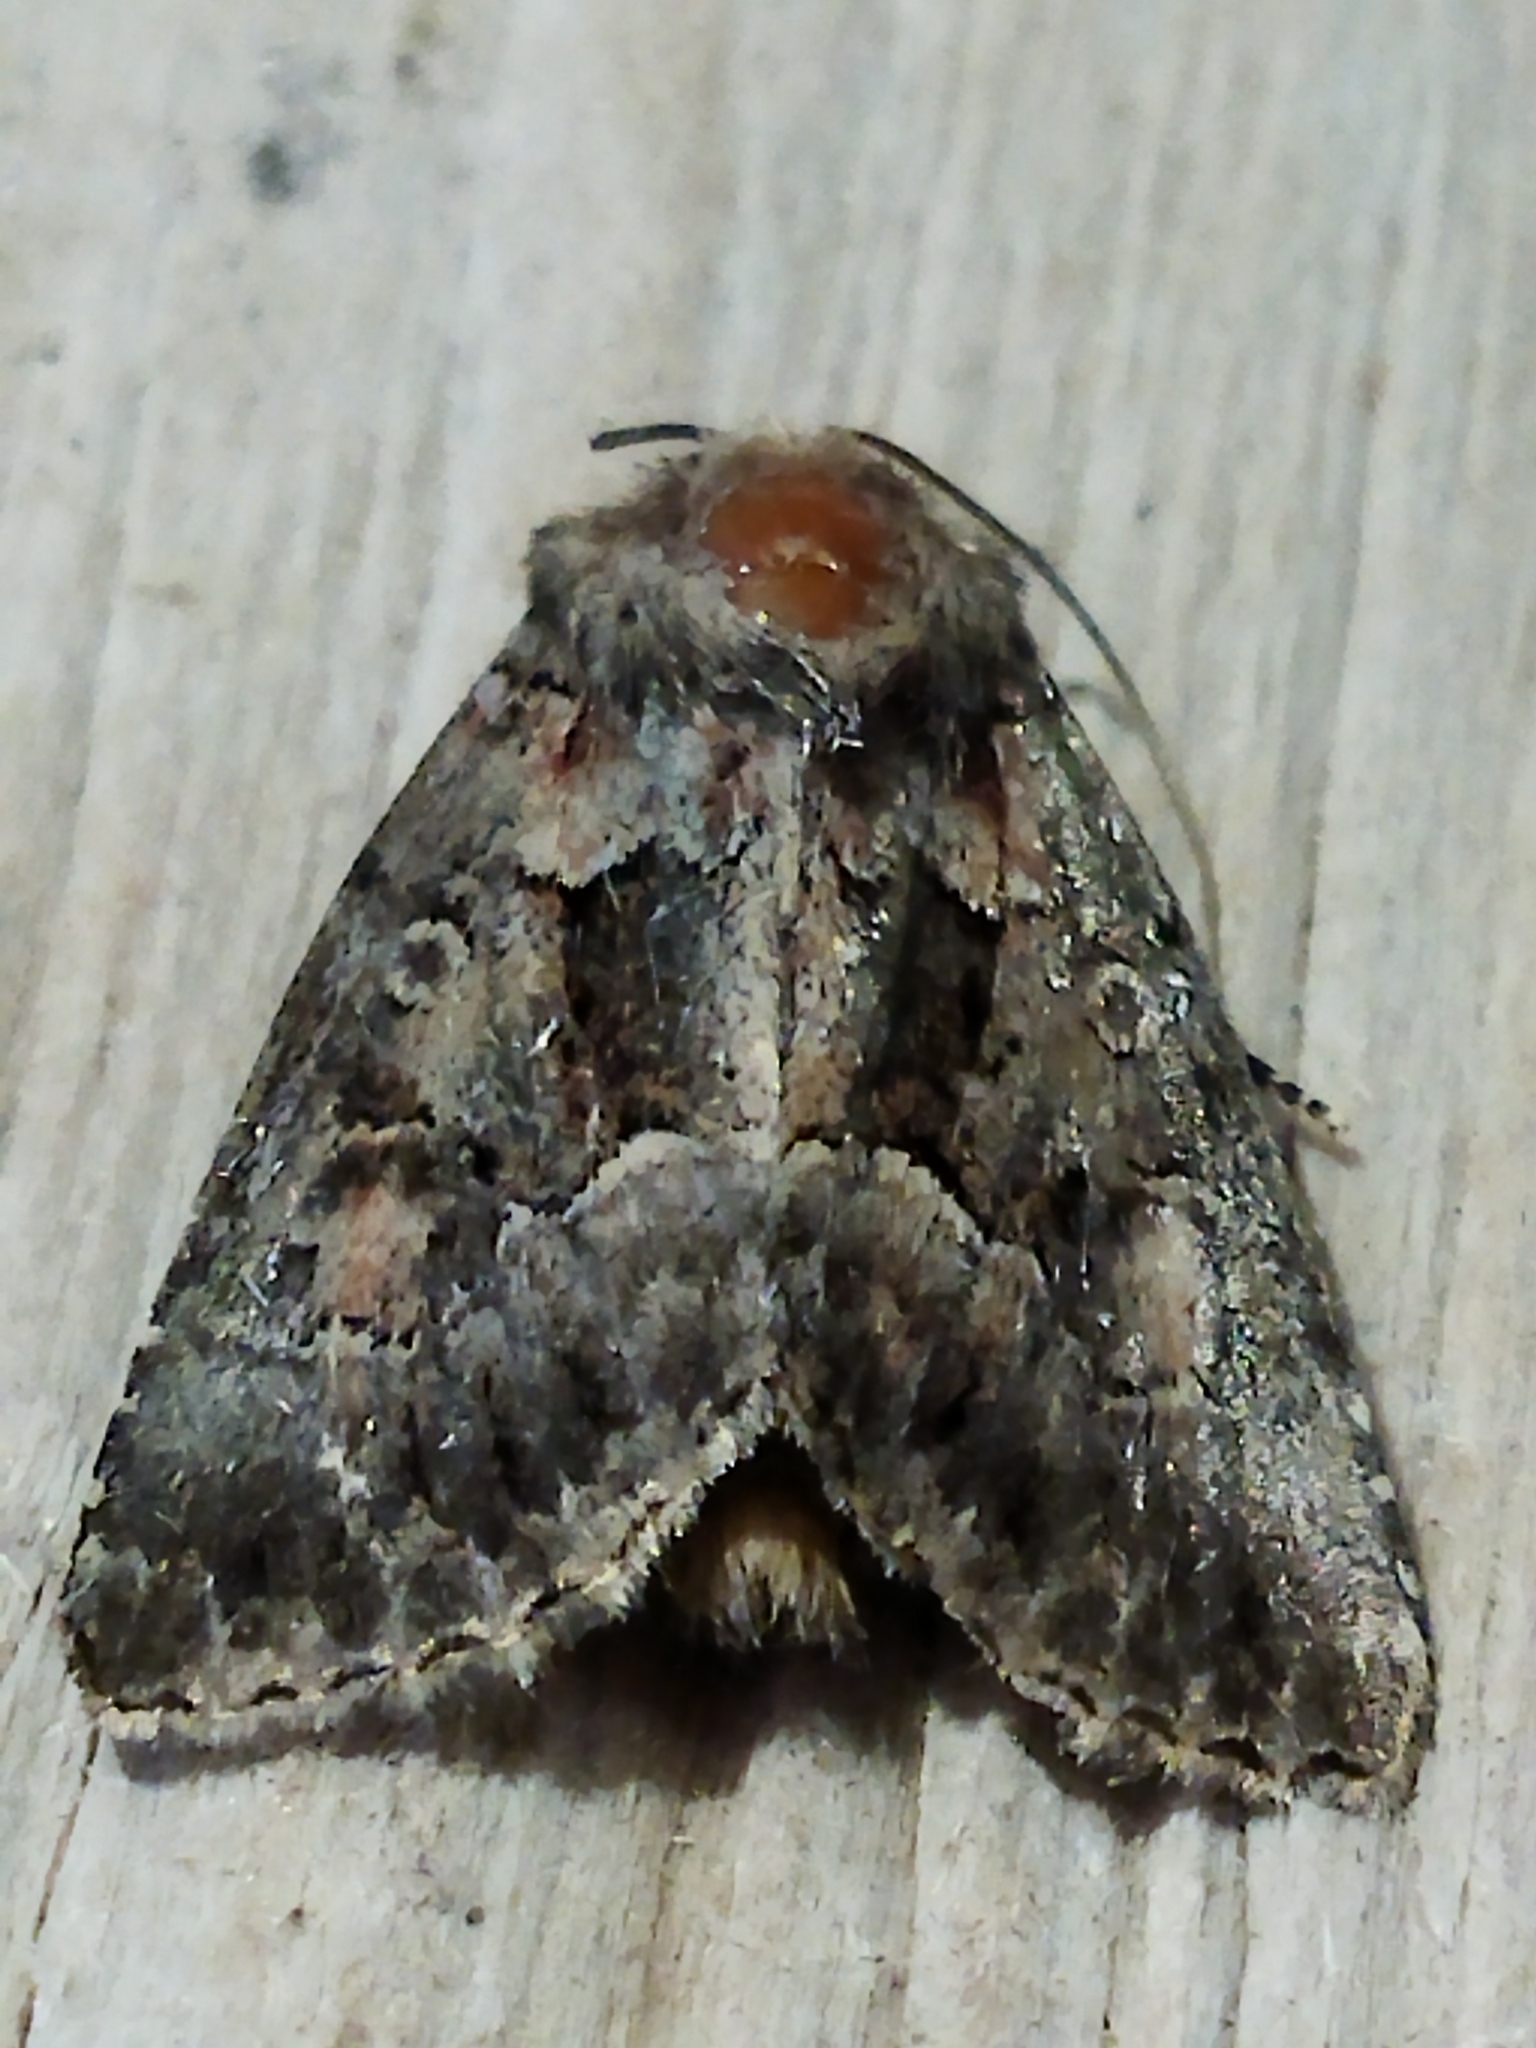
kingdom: Animalia
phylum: Arthropoda
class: Insecta
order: Lepidoptera
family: Noctuidae
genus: Thalpophila
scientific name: Thalpophila matura
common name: Straw underwing
